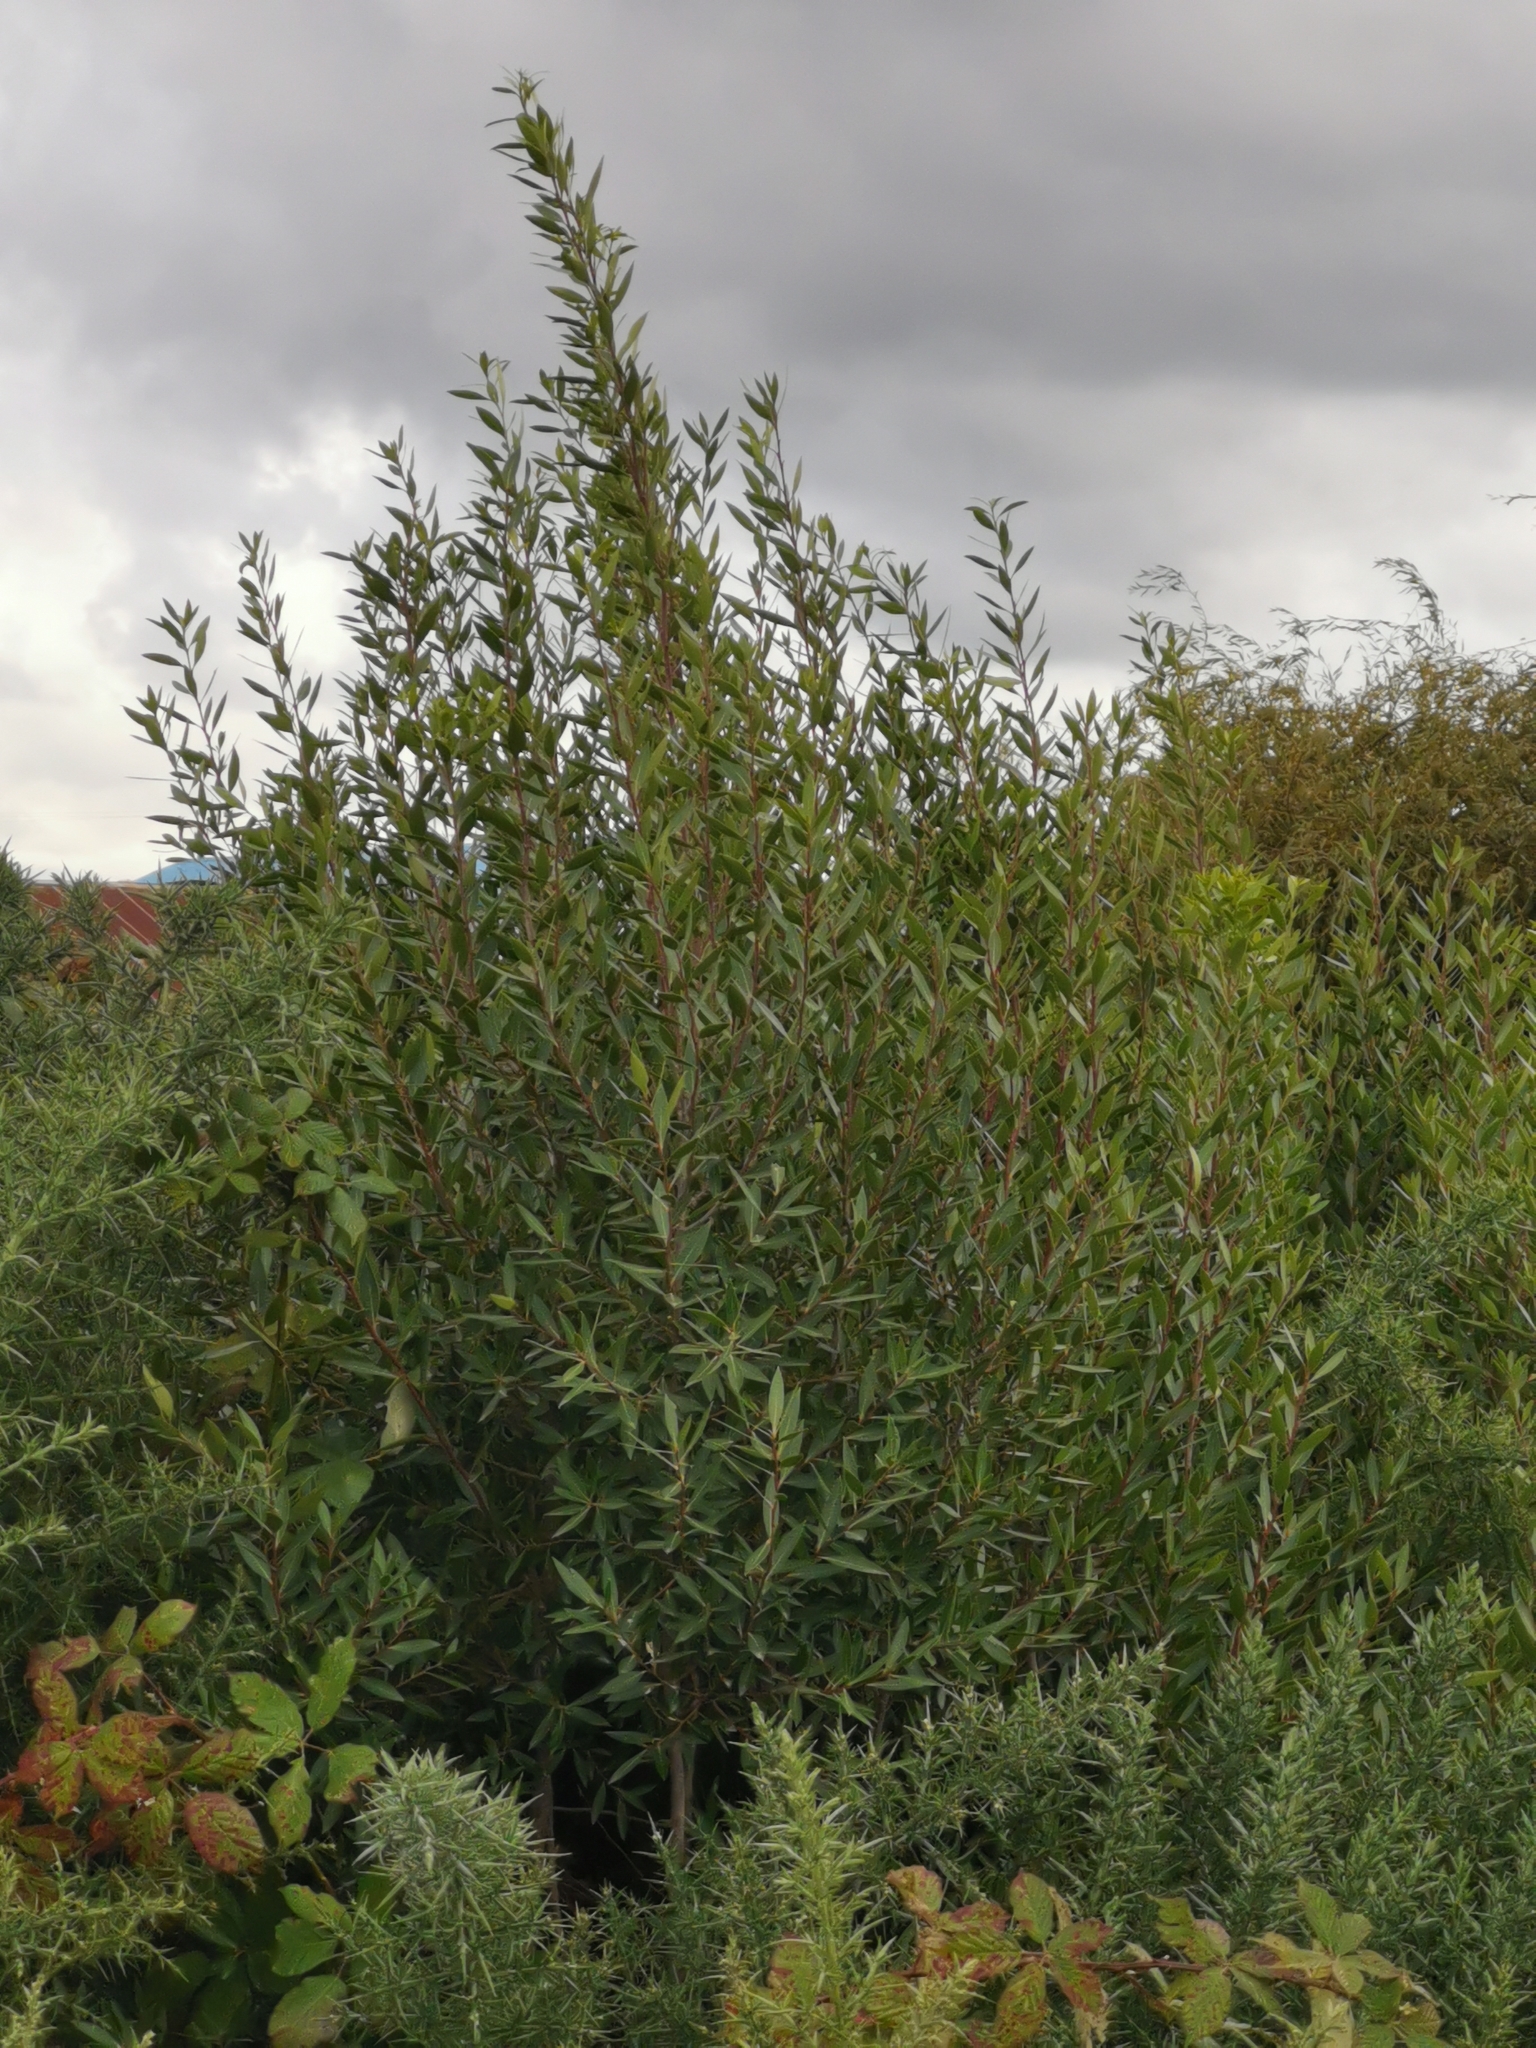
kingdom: Plantae
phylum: Tracheophyta
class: Magnoliopsida
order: Celastrales
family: Celastraceae
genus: Maytenus
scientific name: Maytenus boaria
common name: Mayten
